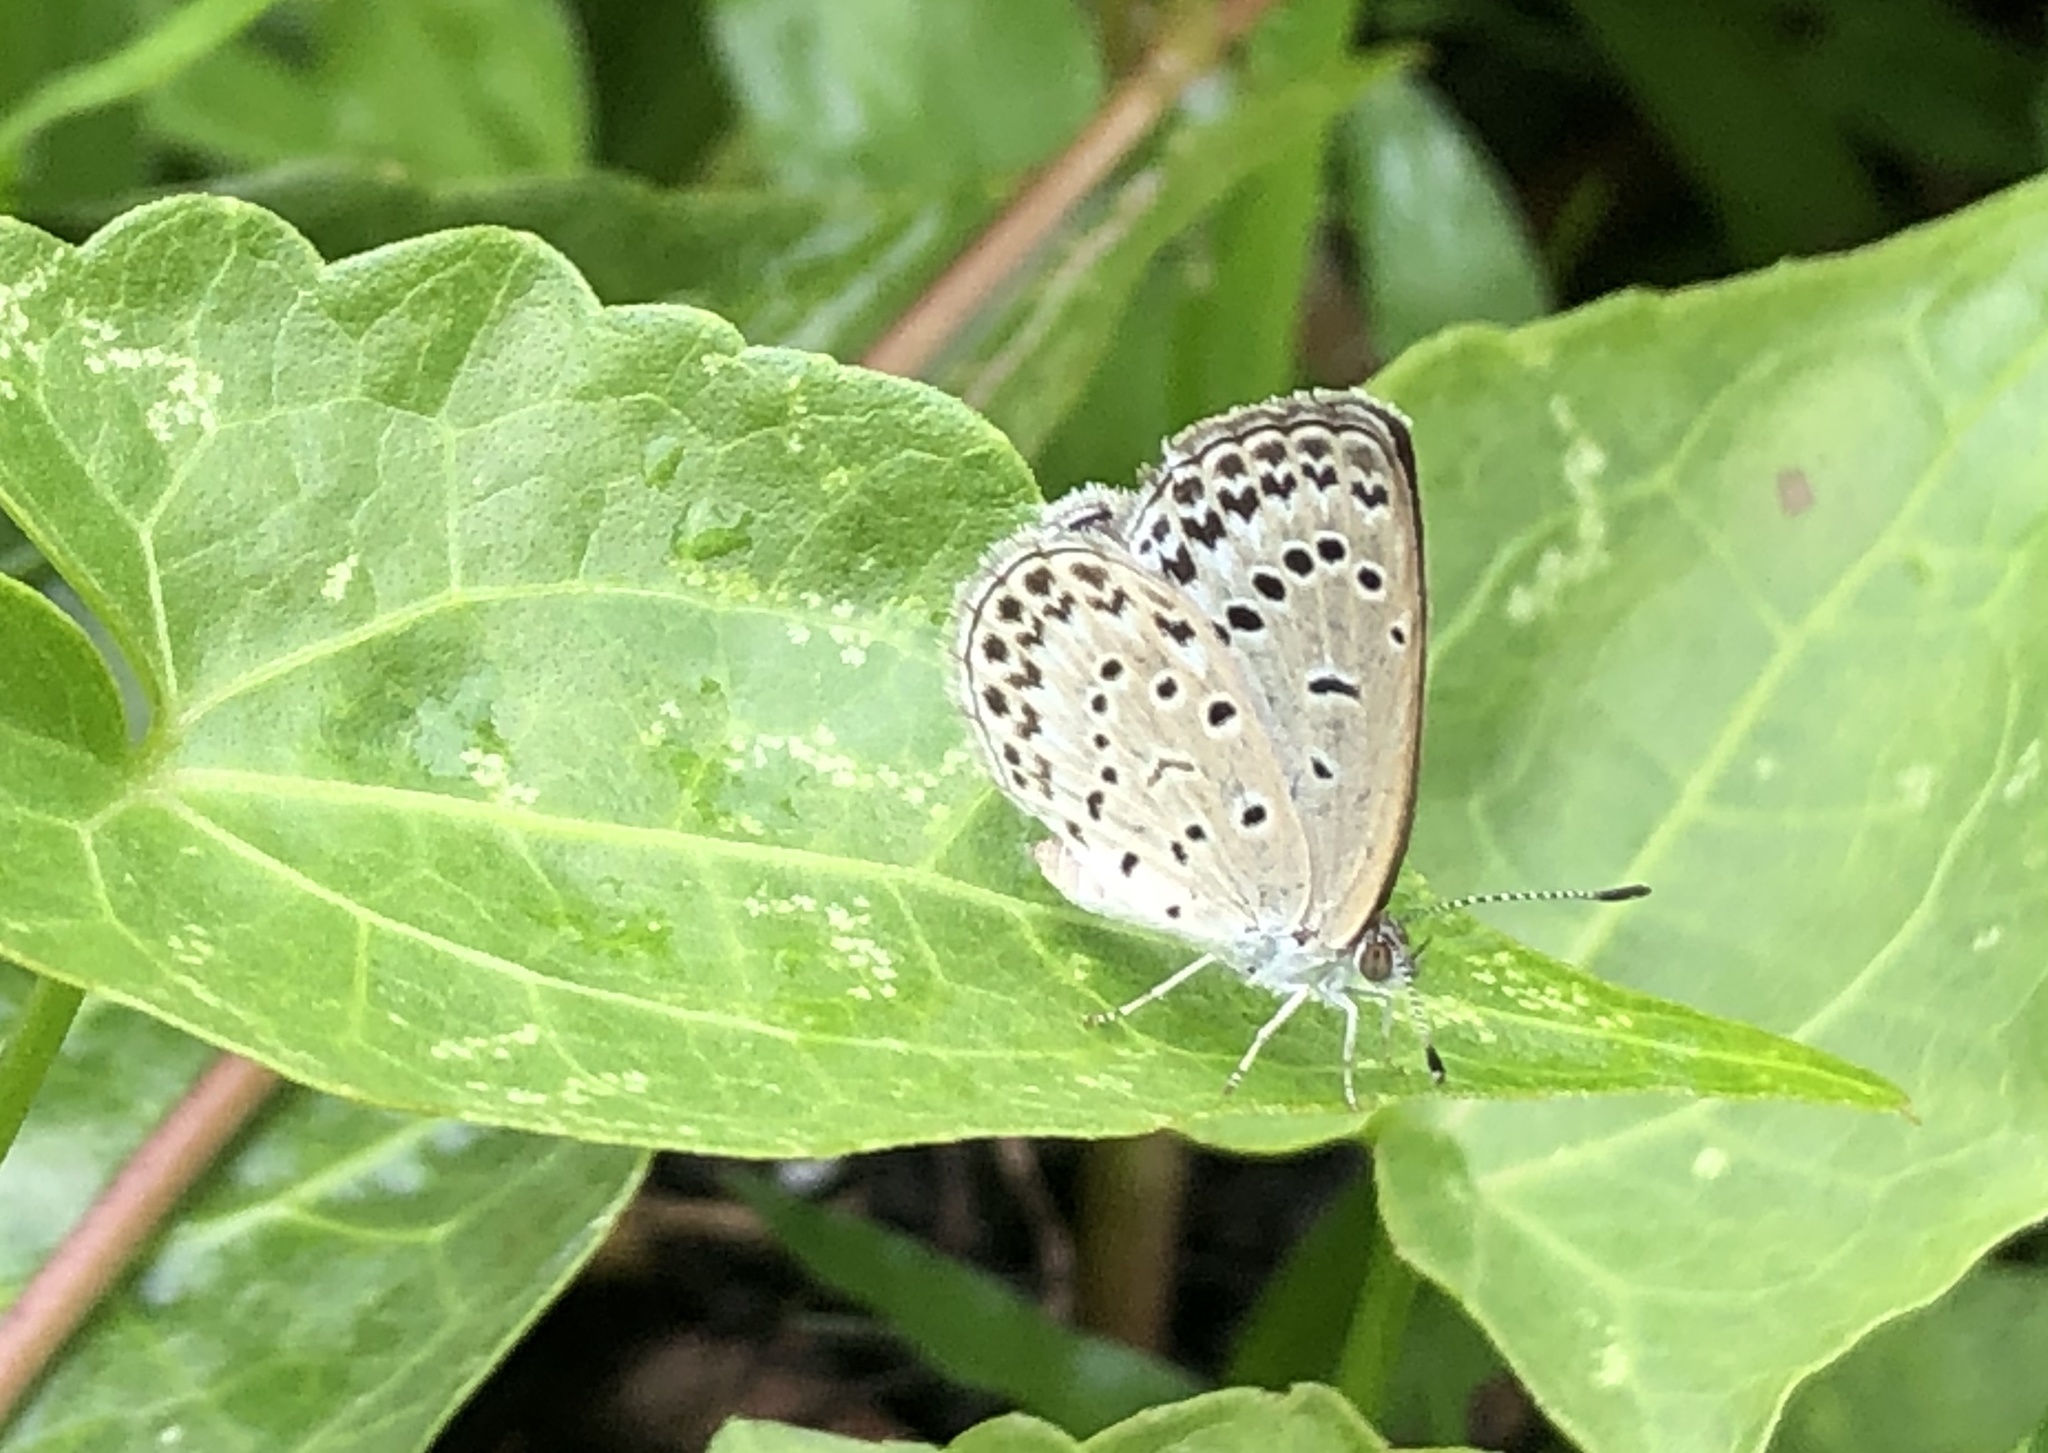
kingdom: Animalia
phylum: Arthropoda
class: Insecta
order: Lepidoptera
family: Lycaenidae
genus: Pseudozizeeria
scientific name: Pseudozizeeria maha
